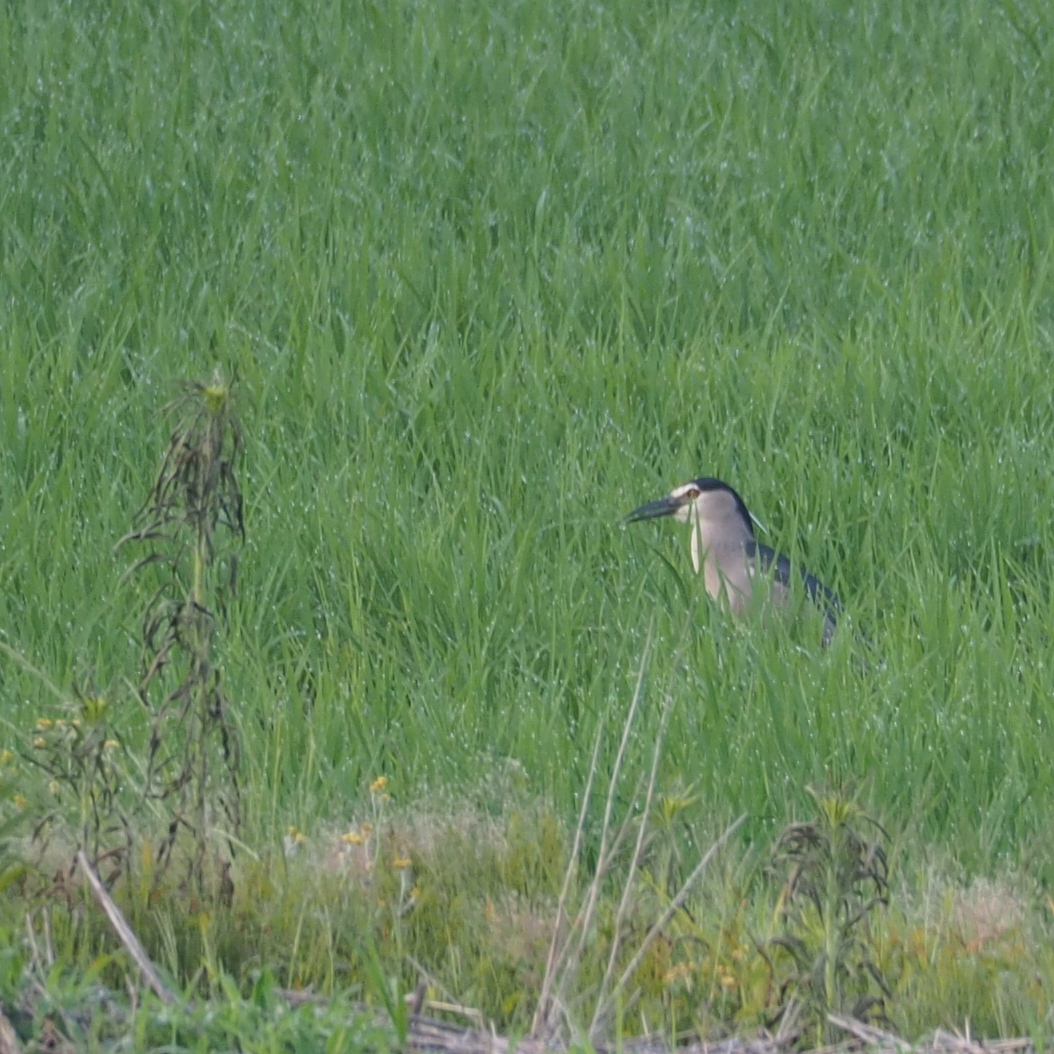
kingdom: Animalia
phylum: Chordata
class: Aves
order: Pelecaniformes
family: Ardeidae
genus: Nycticorax
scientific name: Nycticorax nycticorax
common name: Black-crowned night heron
